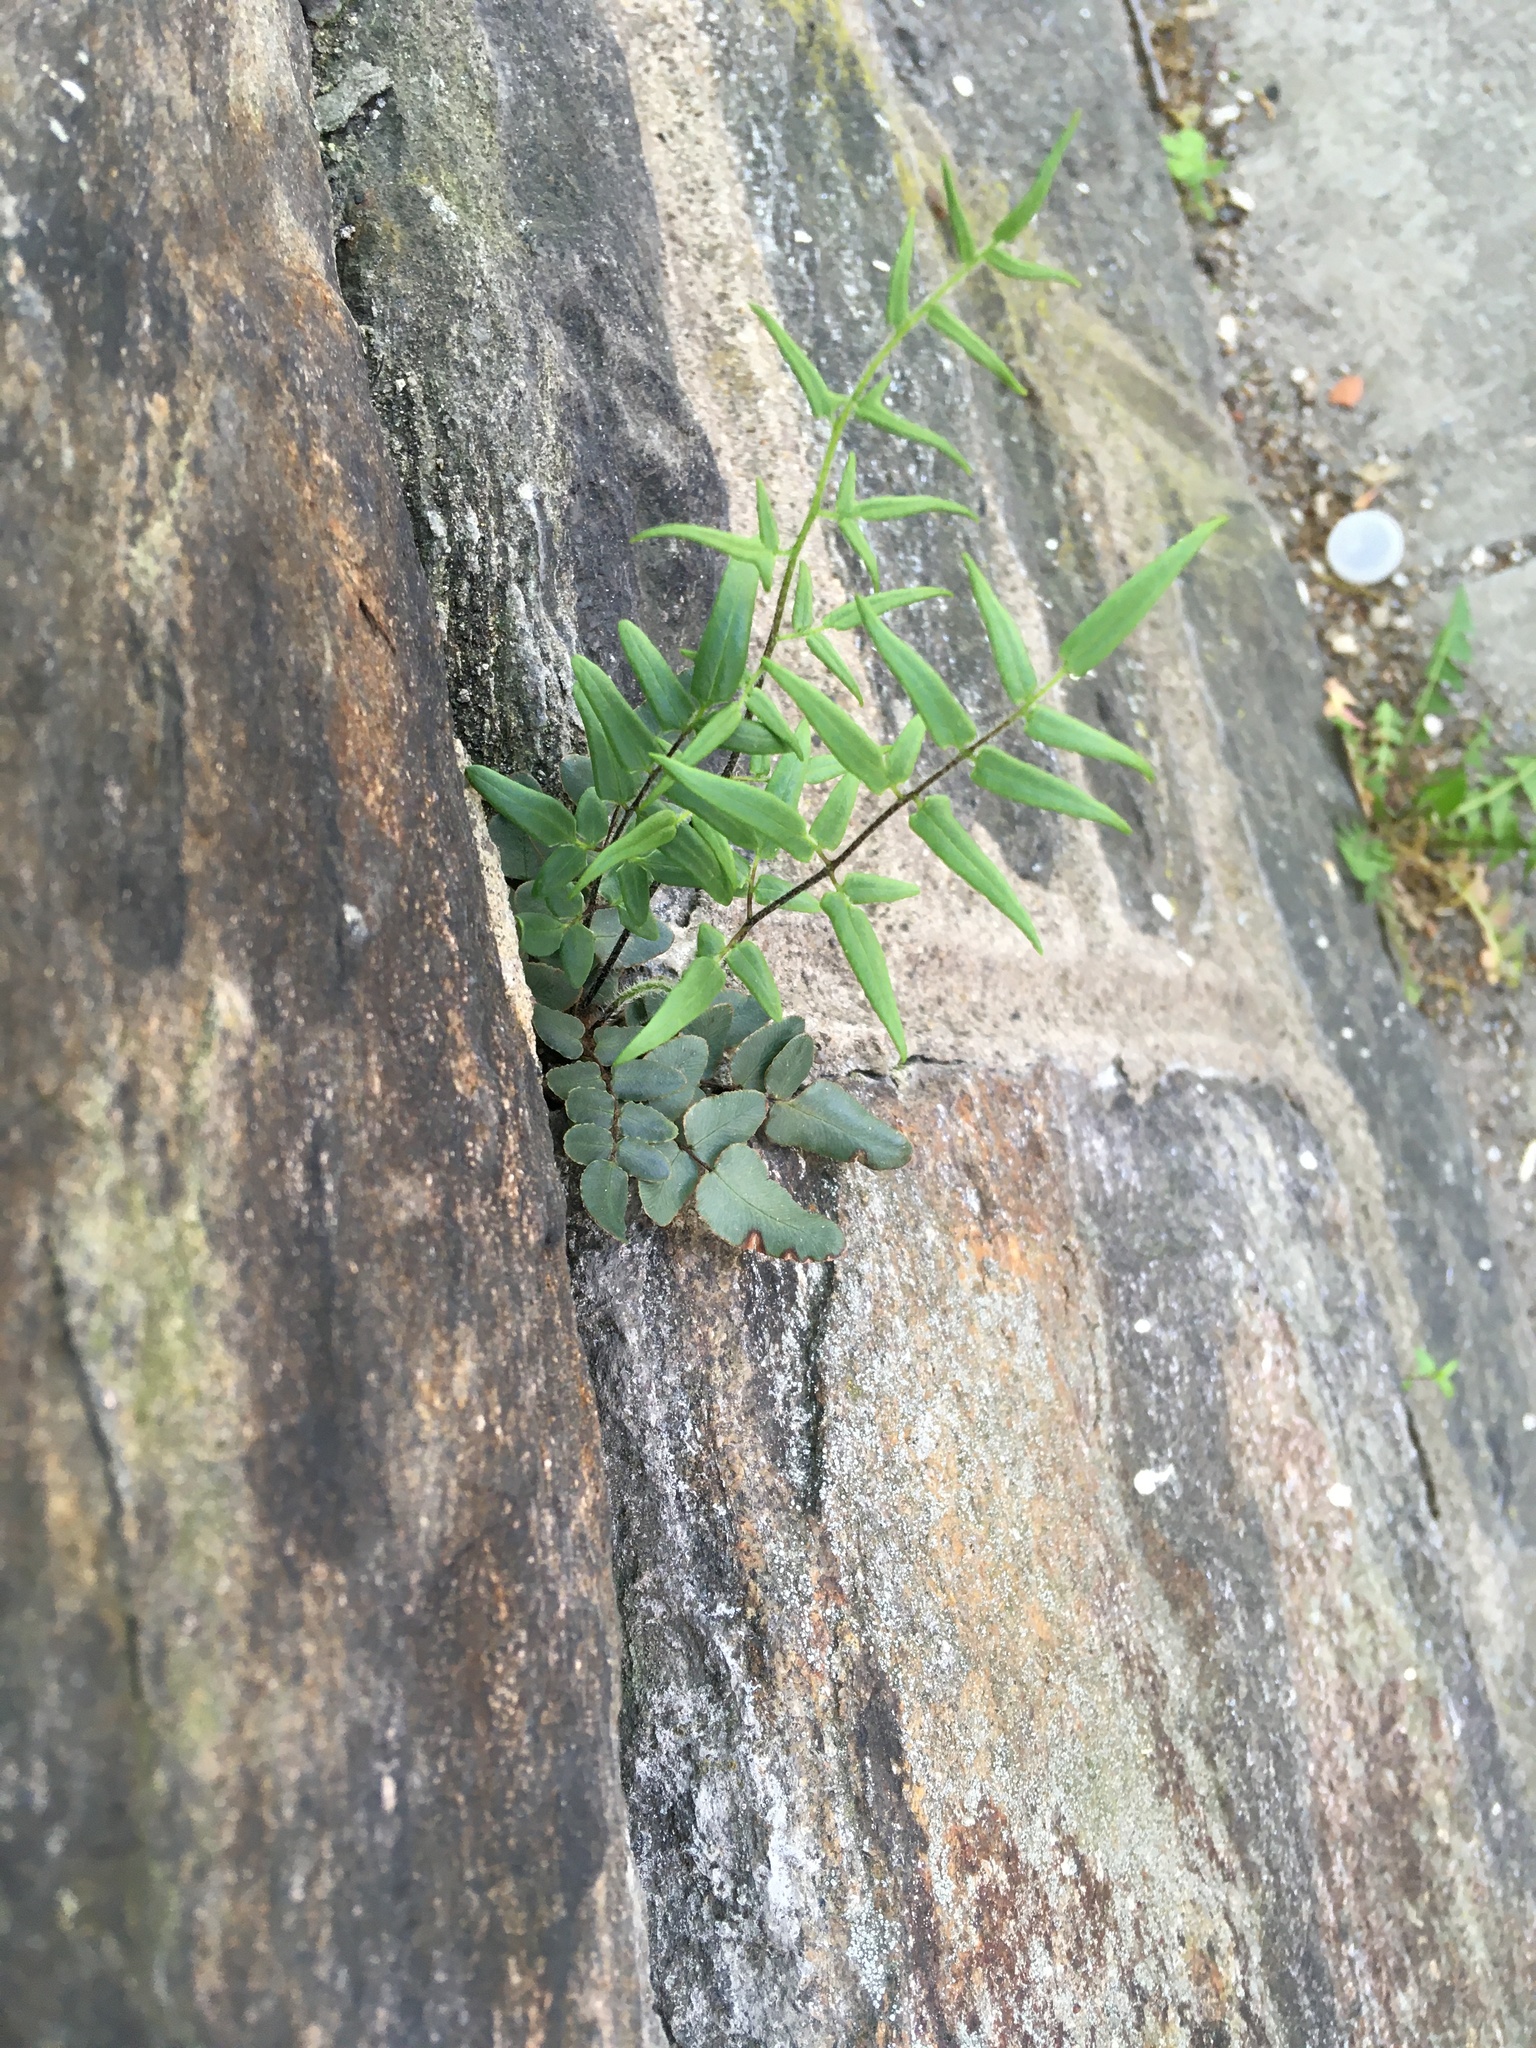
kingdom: Plantae
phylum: Tracheophyta
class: Polypodiopsida
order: Polypodiales
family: Pteridaceae
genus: Pellaea
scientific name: Pellaea atropurpurea
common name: Hairy cliffbrake
